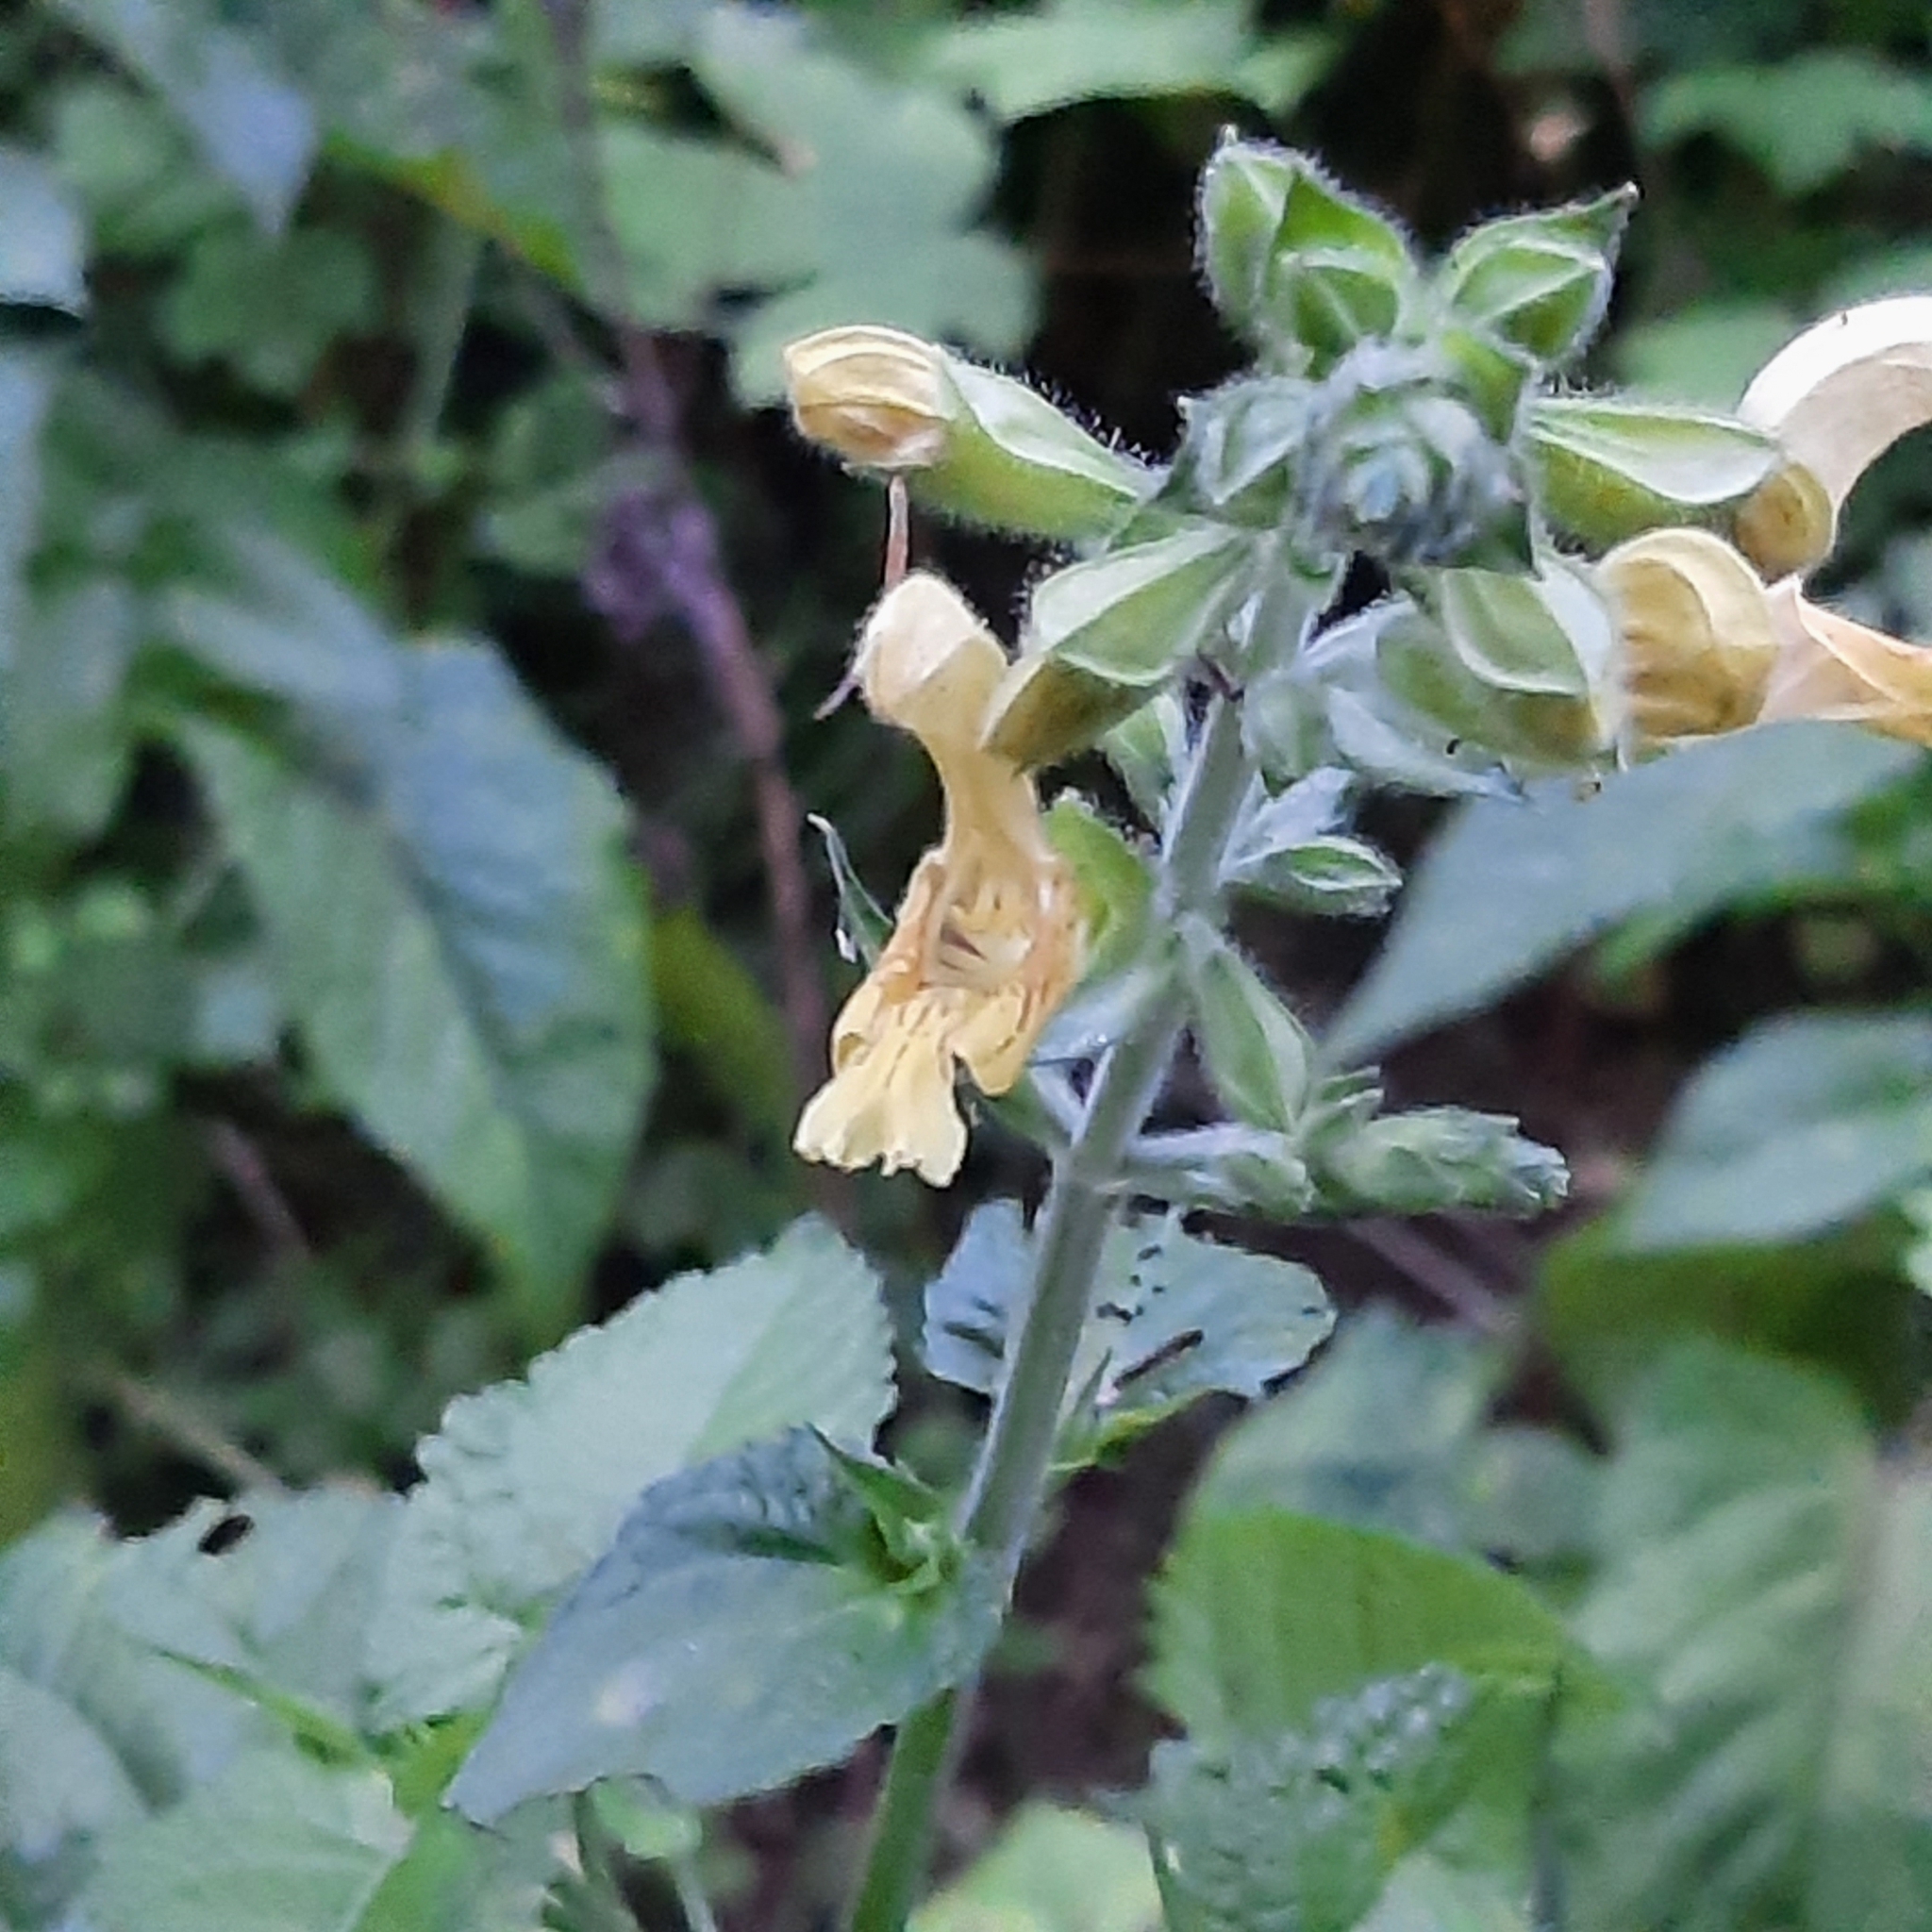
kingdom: Plantae
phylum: Tracheophyta
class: Magnoliopsida
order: Lamiales
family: Lamiaceae
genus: Salvia
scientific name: Salvia glutinosa
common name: Sticky clary
